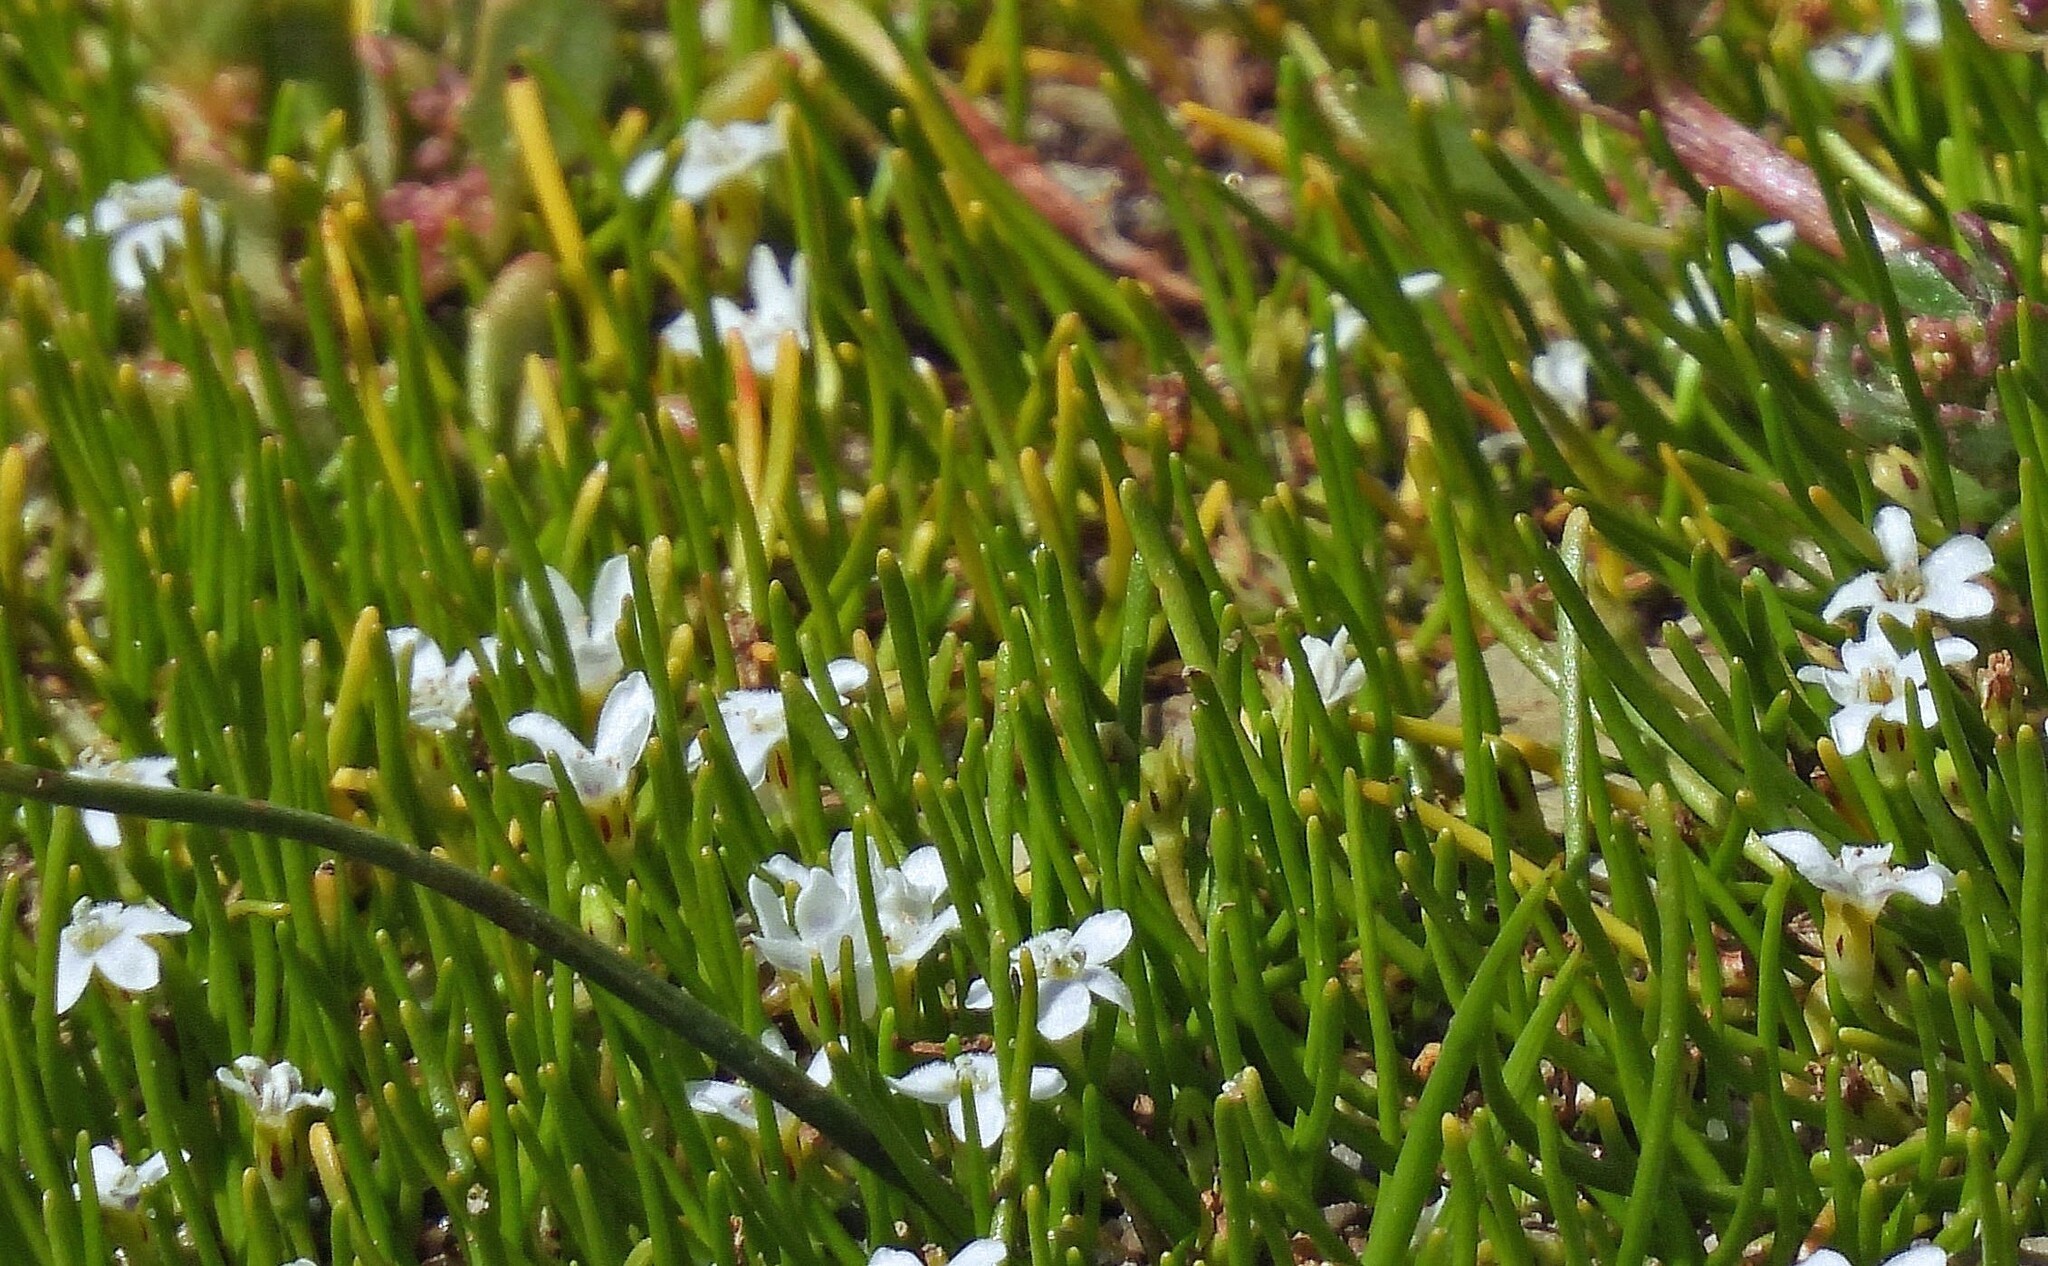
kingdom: Plantae
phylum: Tracheophyta
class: Magnoliopsida
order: Lamiales
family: Scrophulariaceae
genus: Limosella
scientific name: Limosella australis
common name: Welsh mudwort
